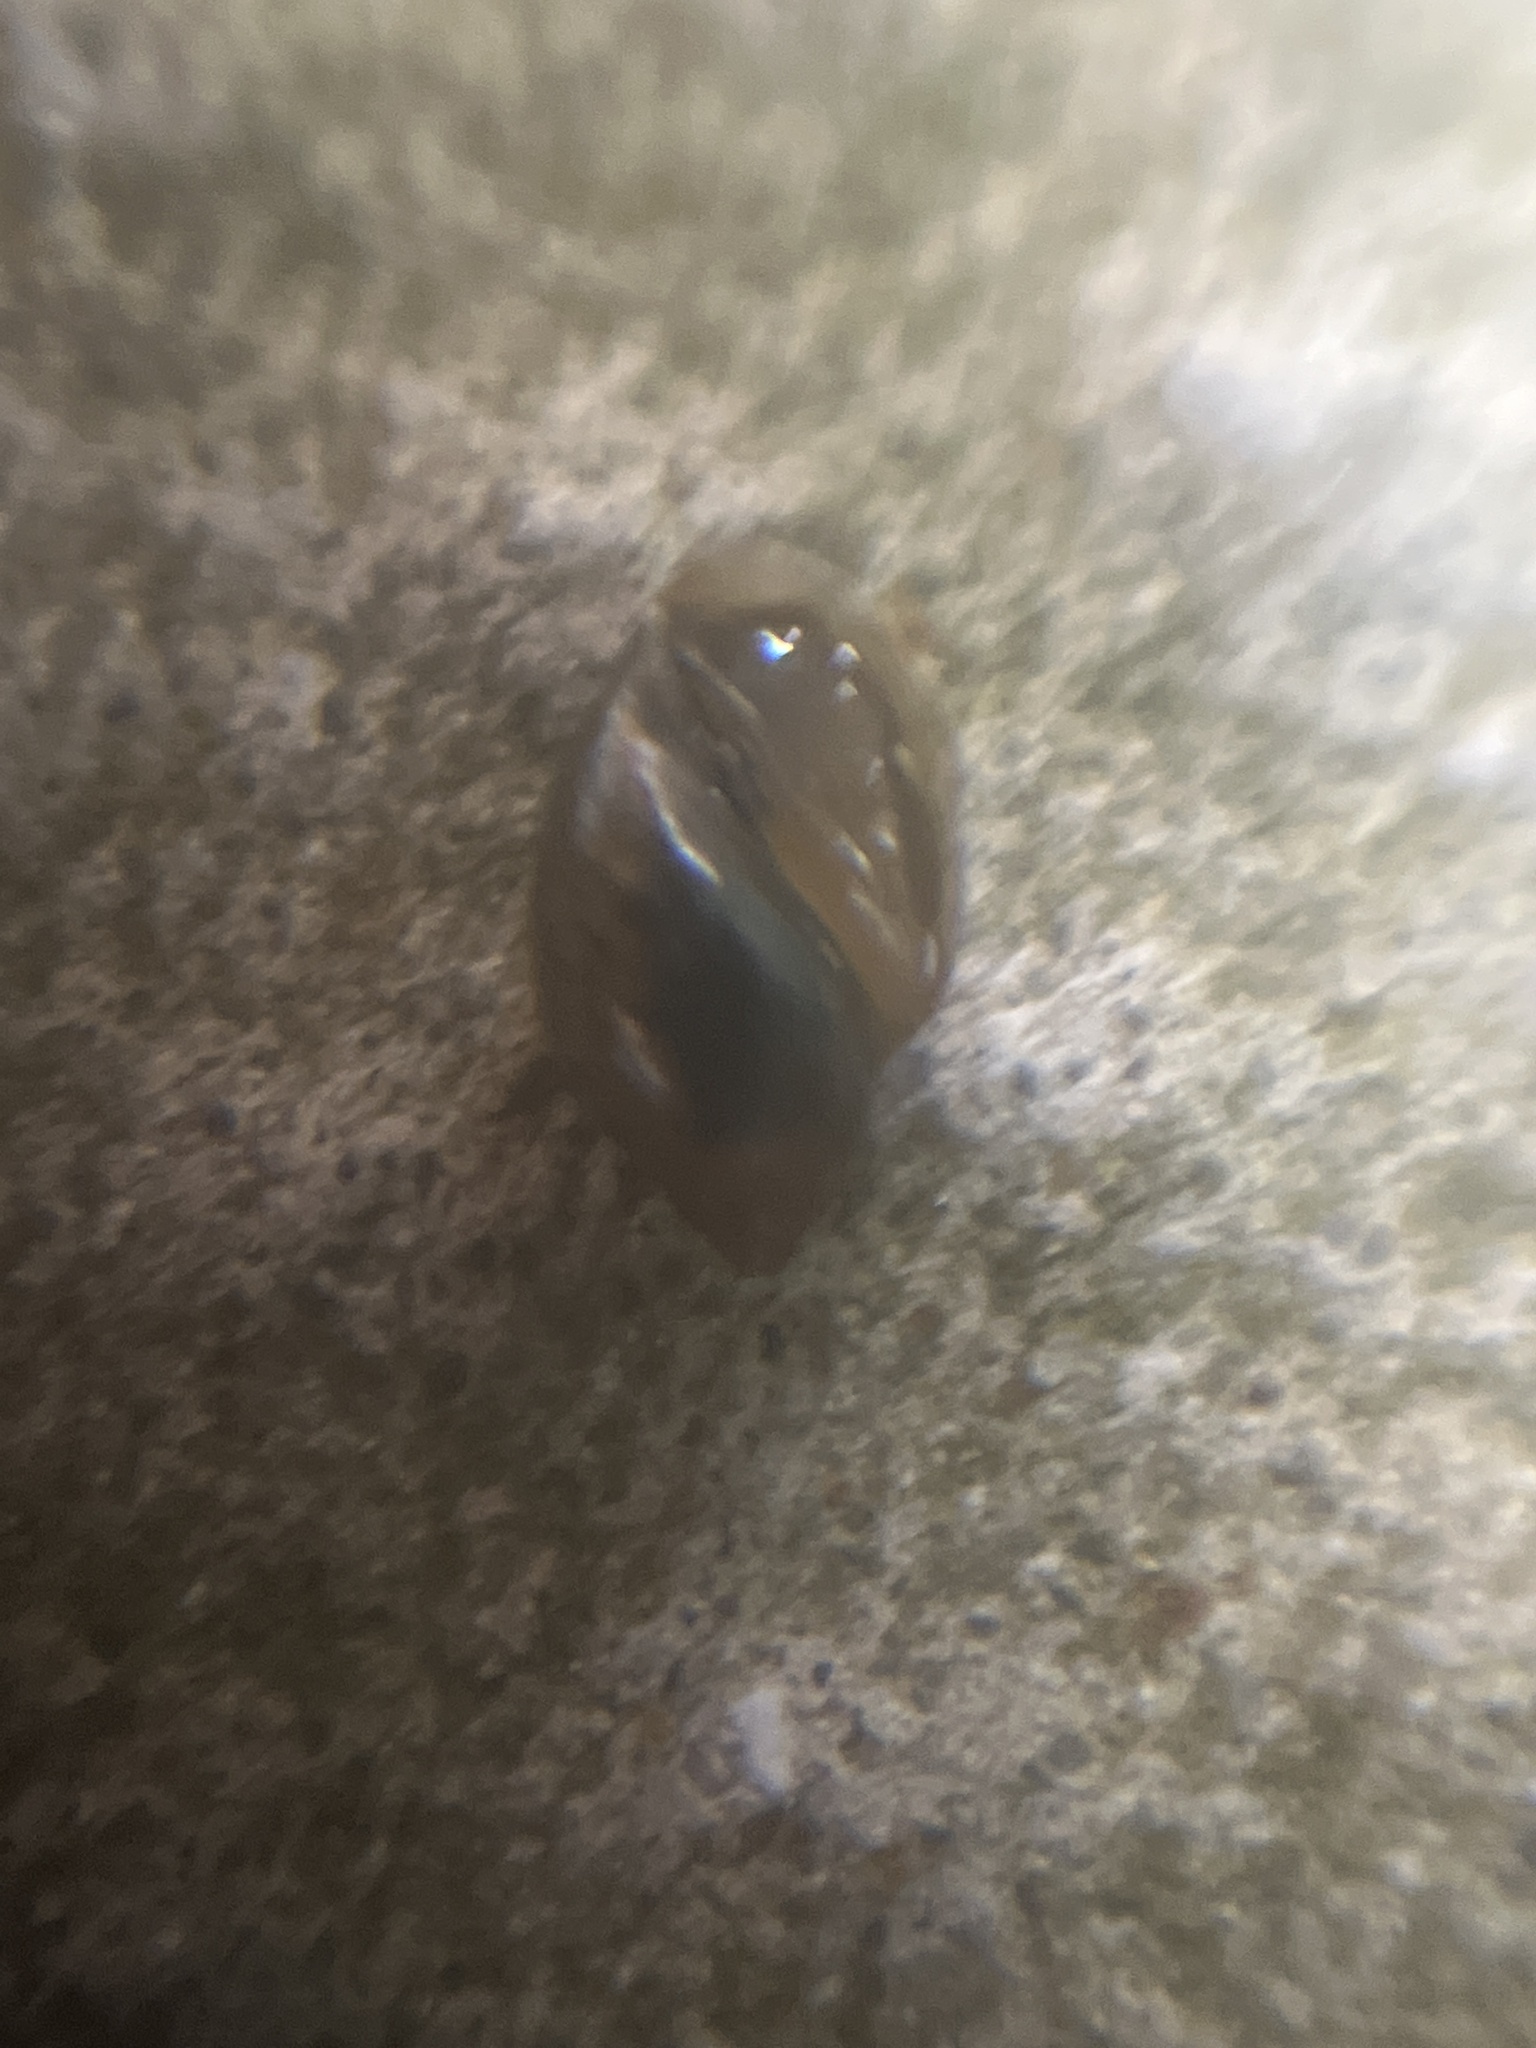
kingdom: Animalia
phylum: Mollusca
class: Gastropoda
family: Physidae
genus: Physella
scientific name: Physella acuta
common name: European physa
